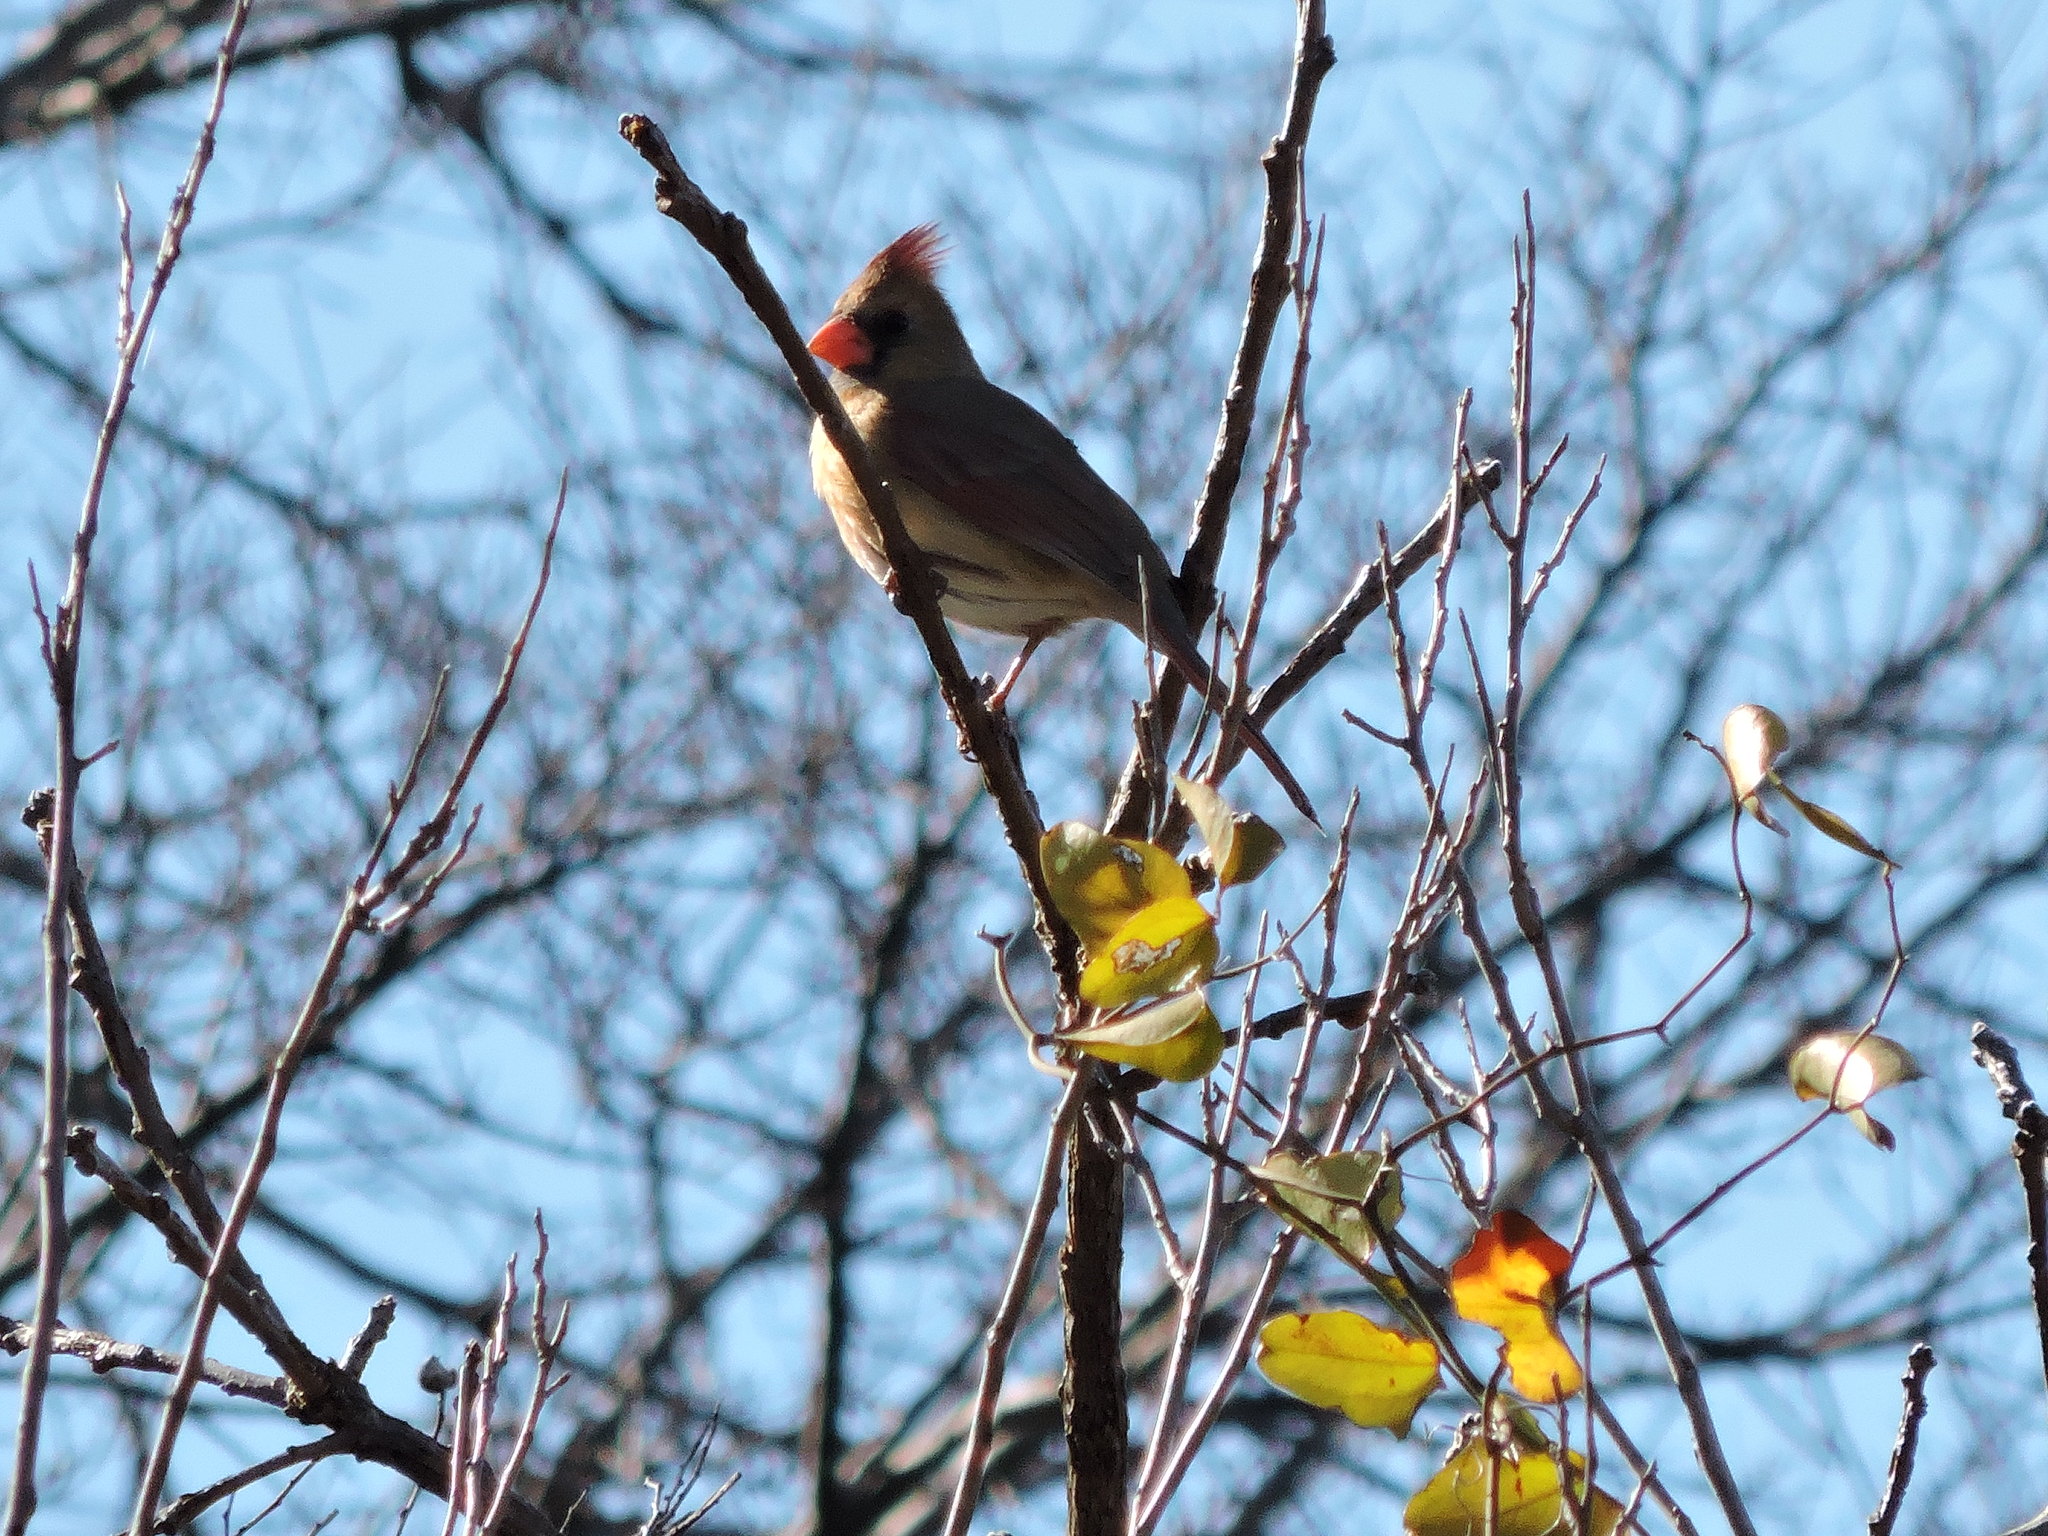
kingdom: Animalia
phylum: Chordata
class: Aves
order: Passeriformes
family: Cardinalidae
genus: Cardinalis
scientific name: Cardinalis cardinalis
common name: Northern cardinal
